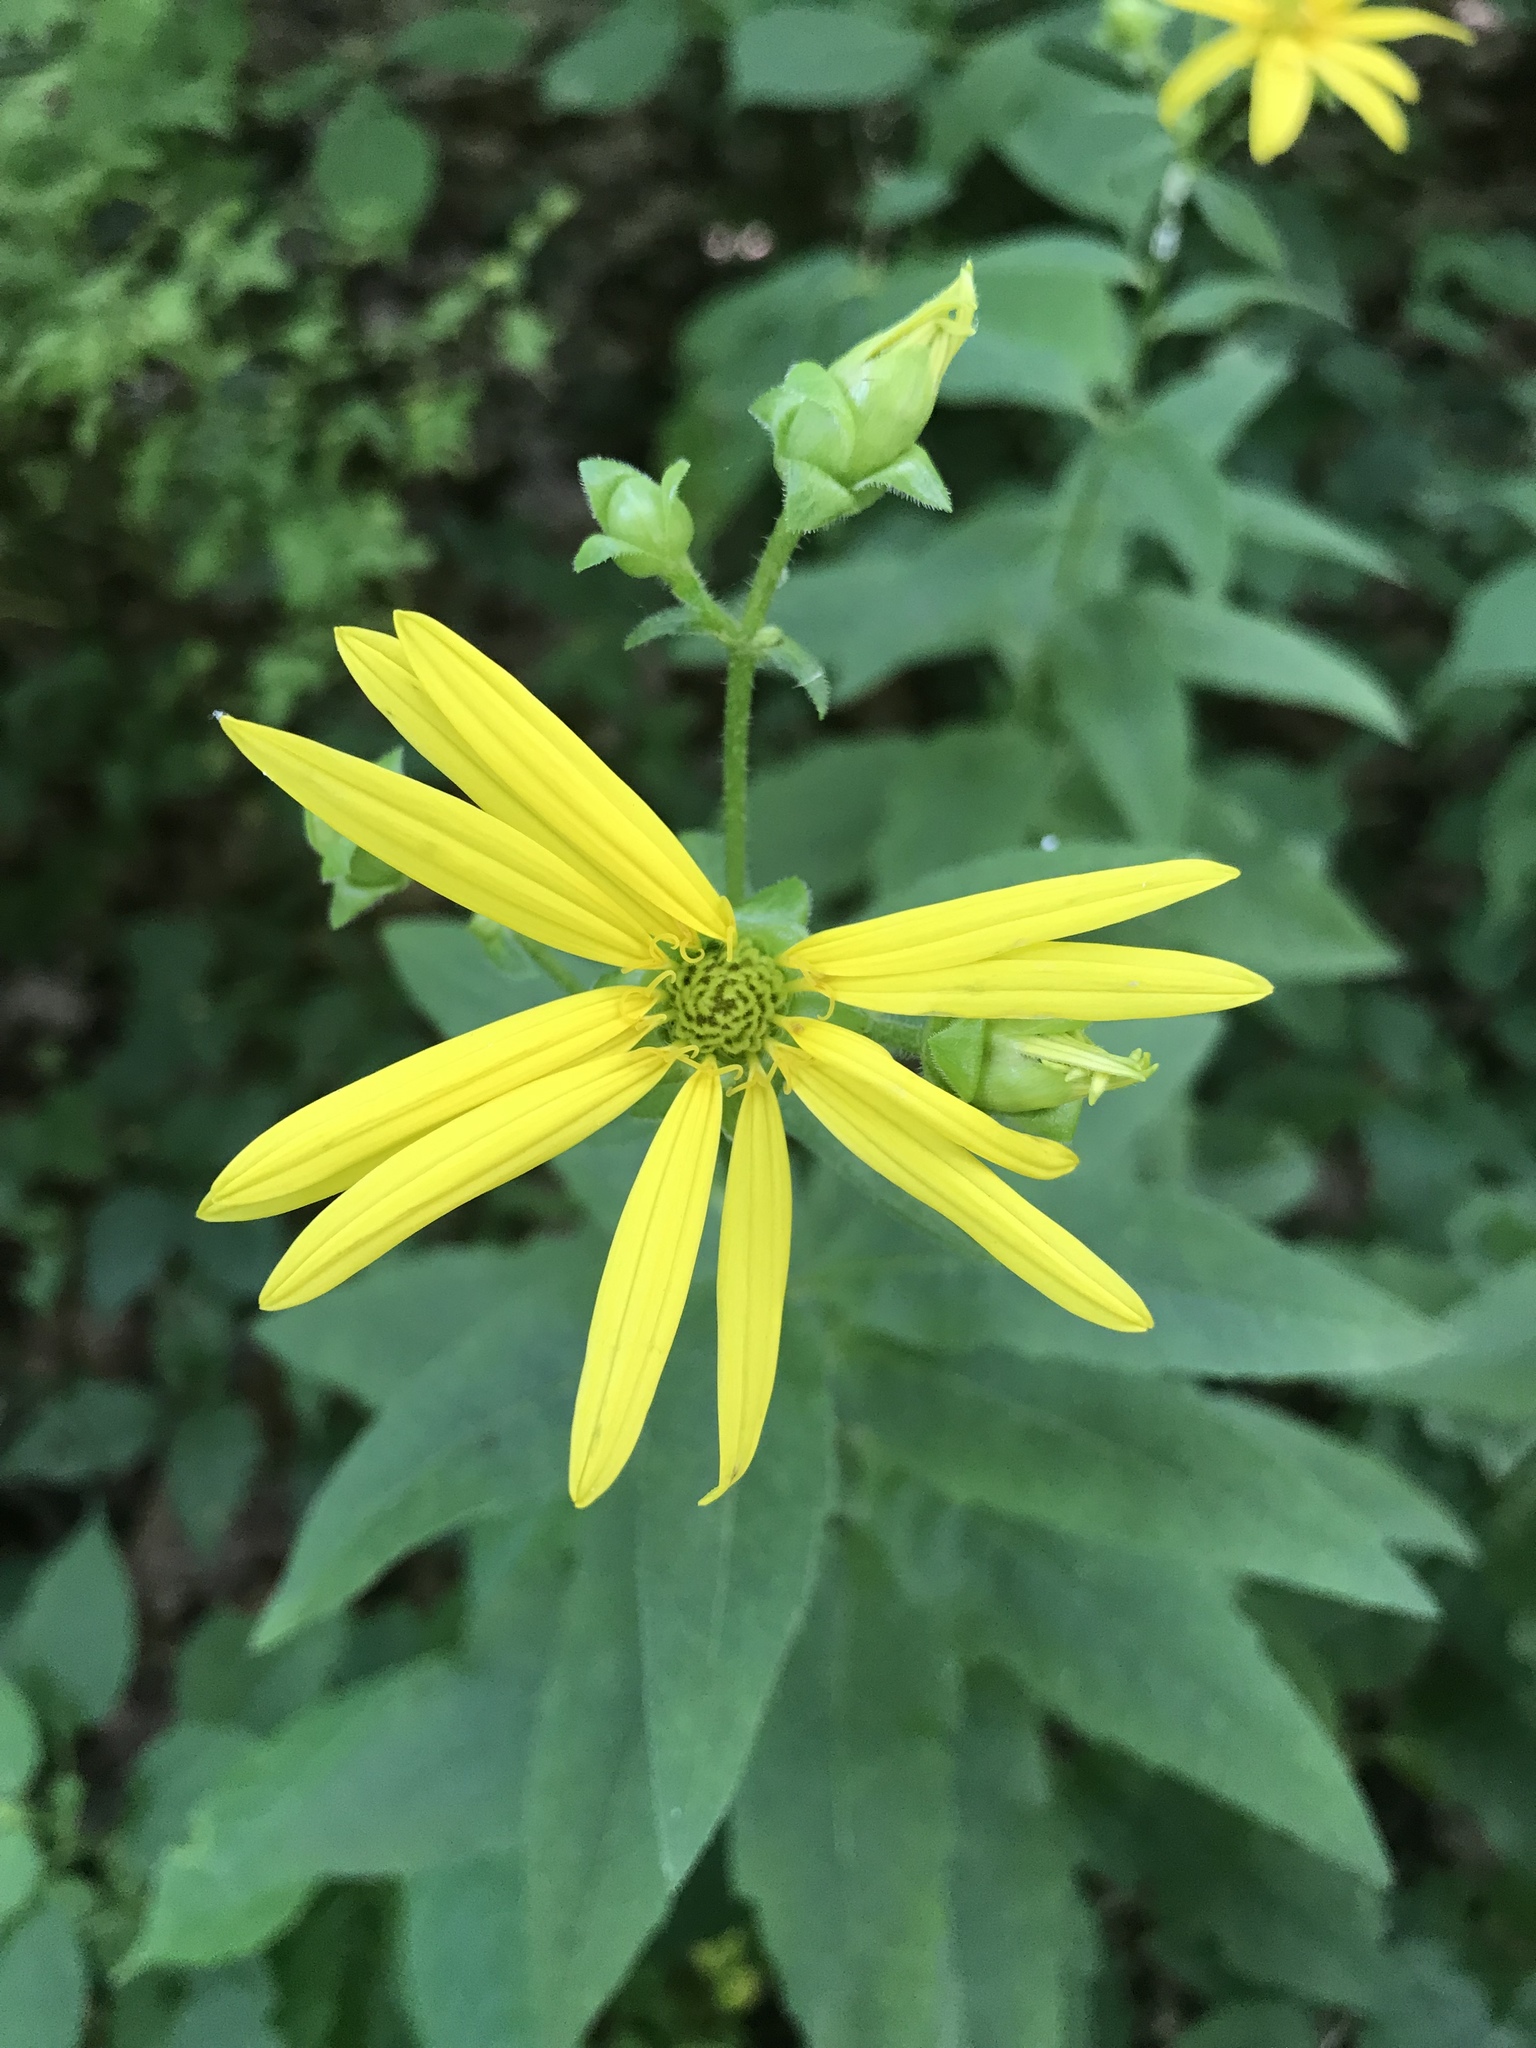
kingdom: Plantae
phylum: Tracheophyta
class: Magnoliopsida
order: Asterales
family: Asteraceae
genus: Silphium
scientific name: Silphium asteriscus
